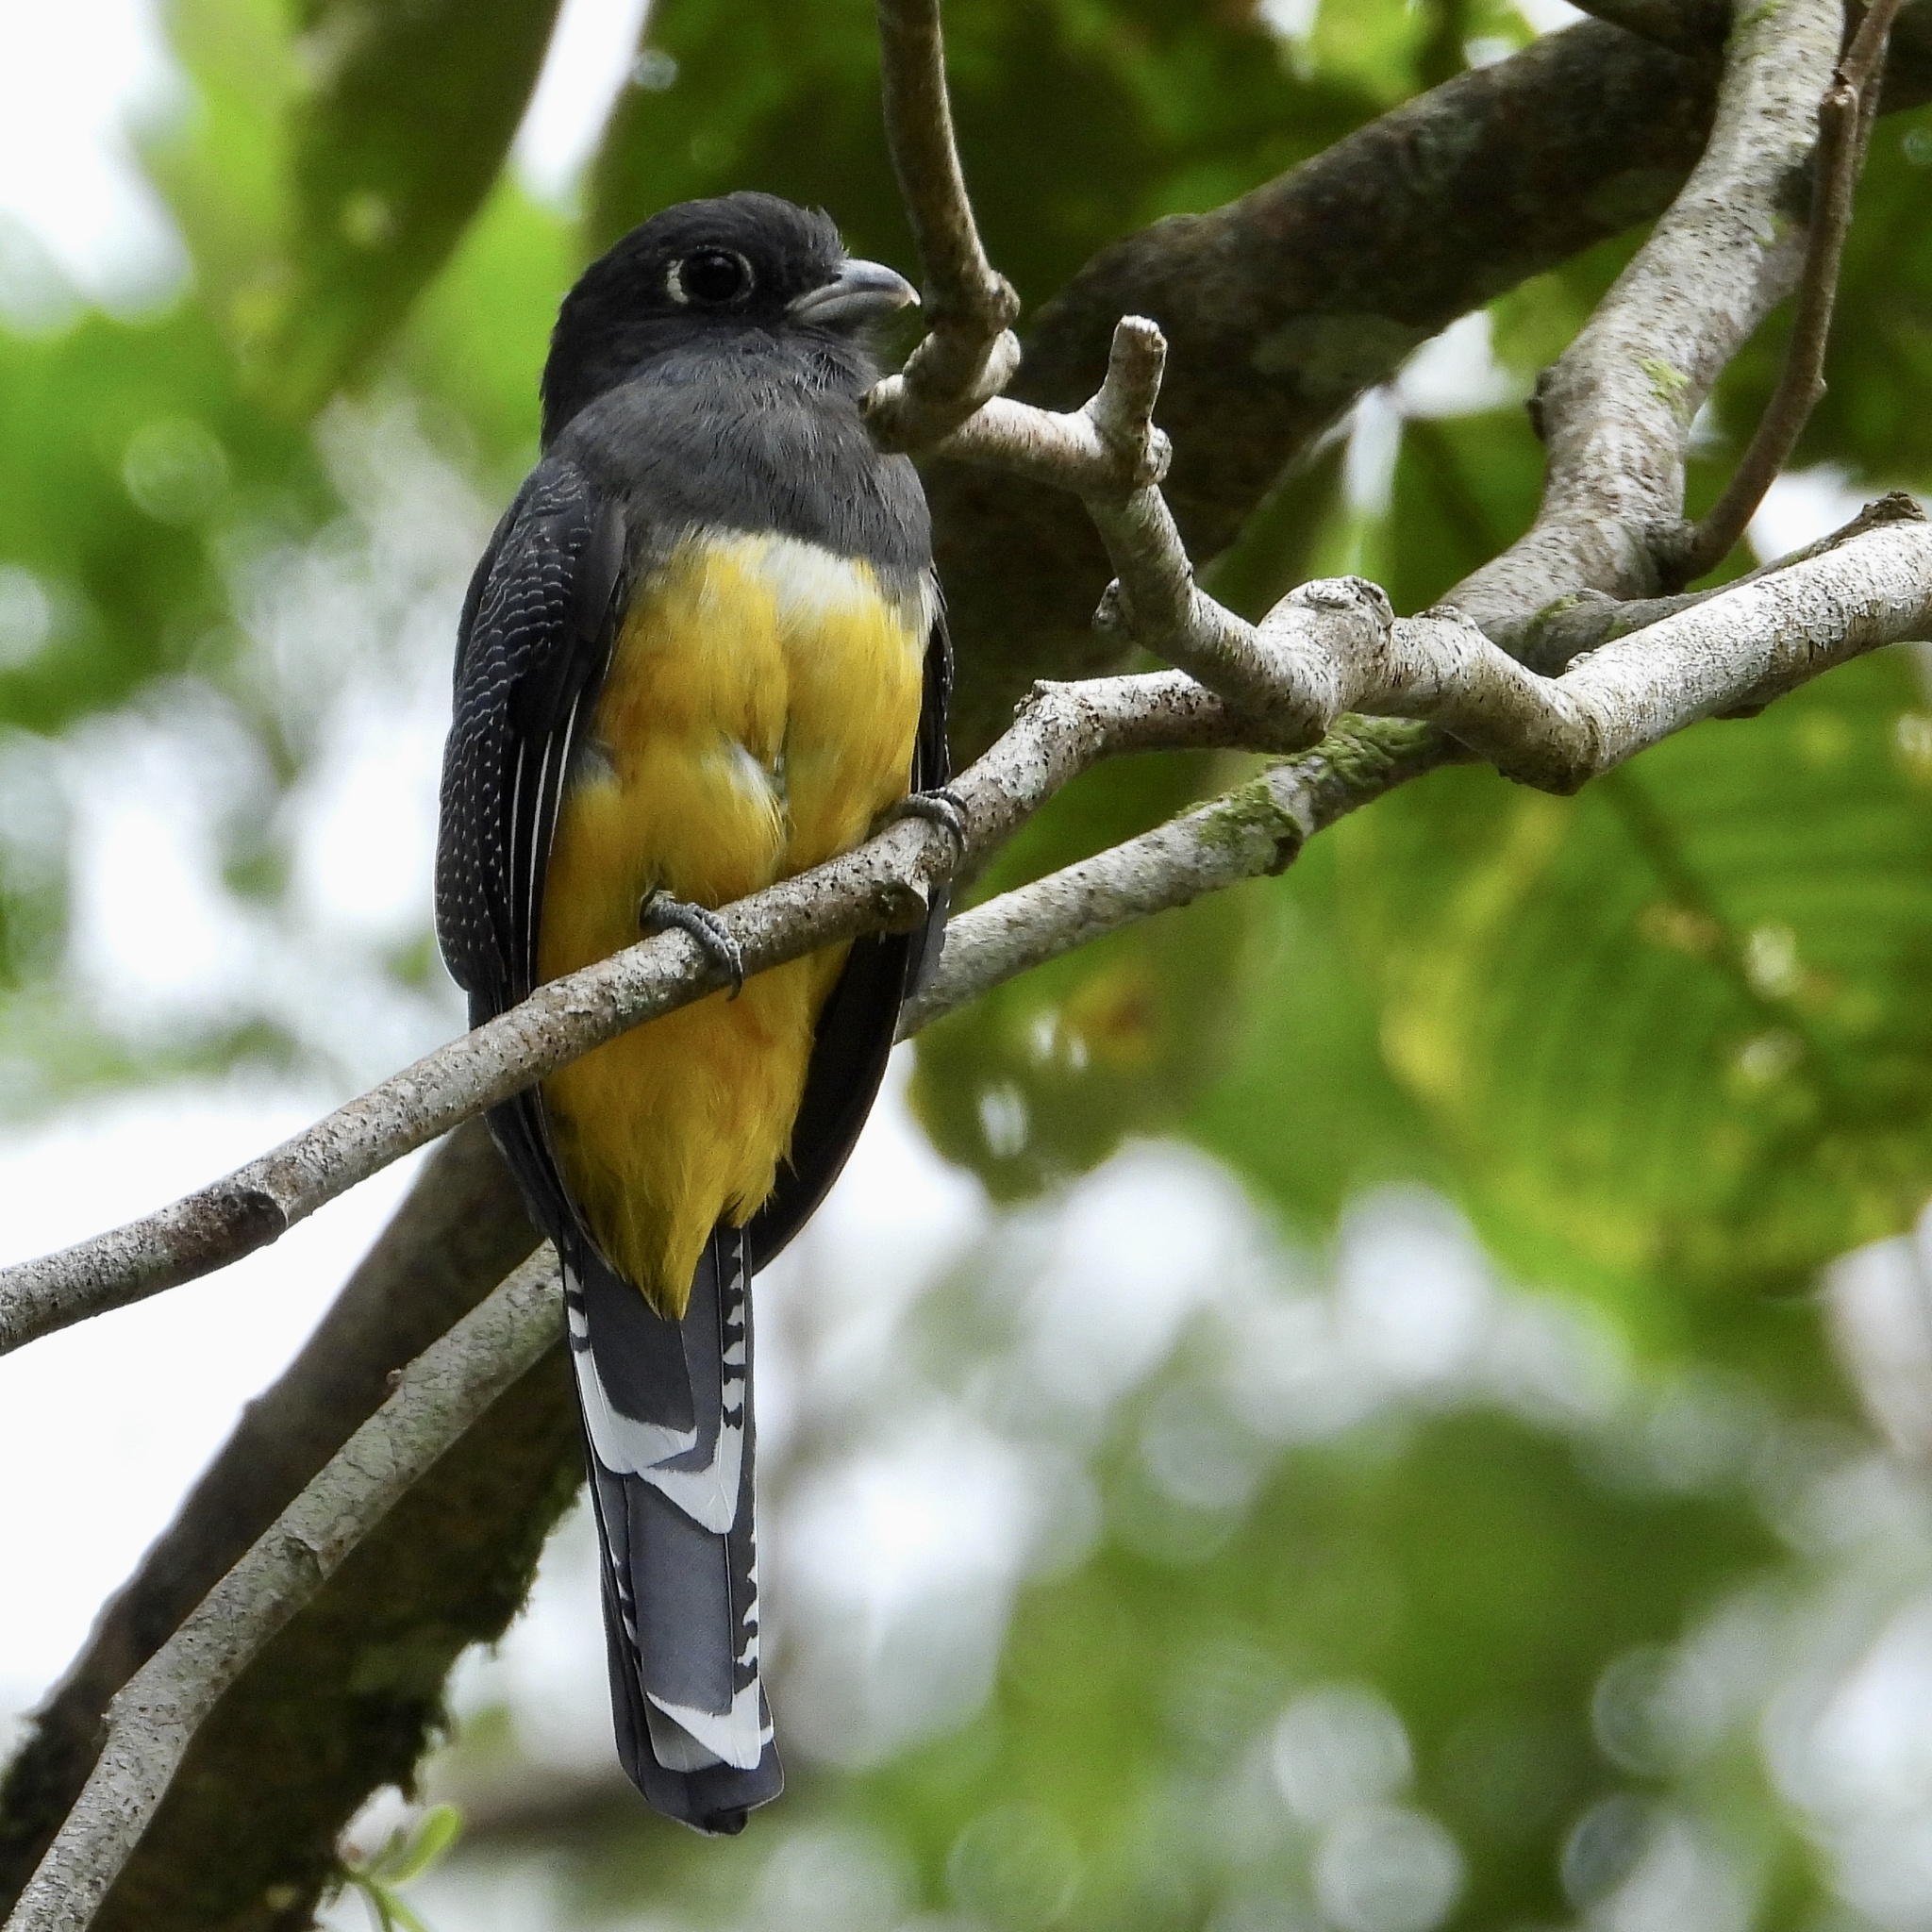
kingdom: Animalia
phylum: Chordata
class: Aves
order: Trogoniformes
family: Trogonidae
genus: Trogon
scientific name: Trogon caligatus
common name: Gartered trogon
